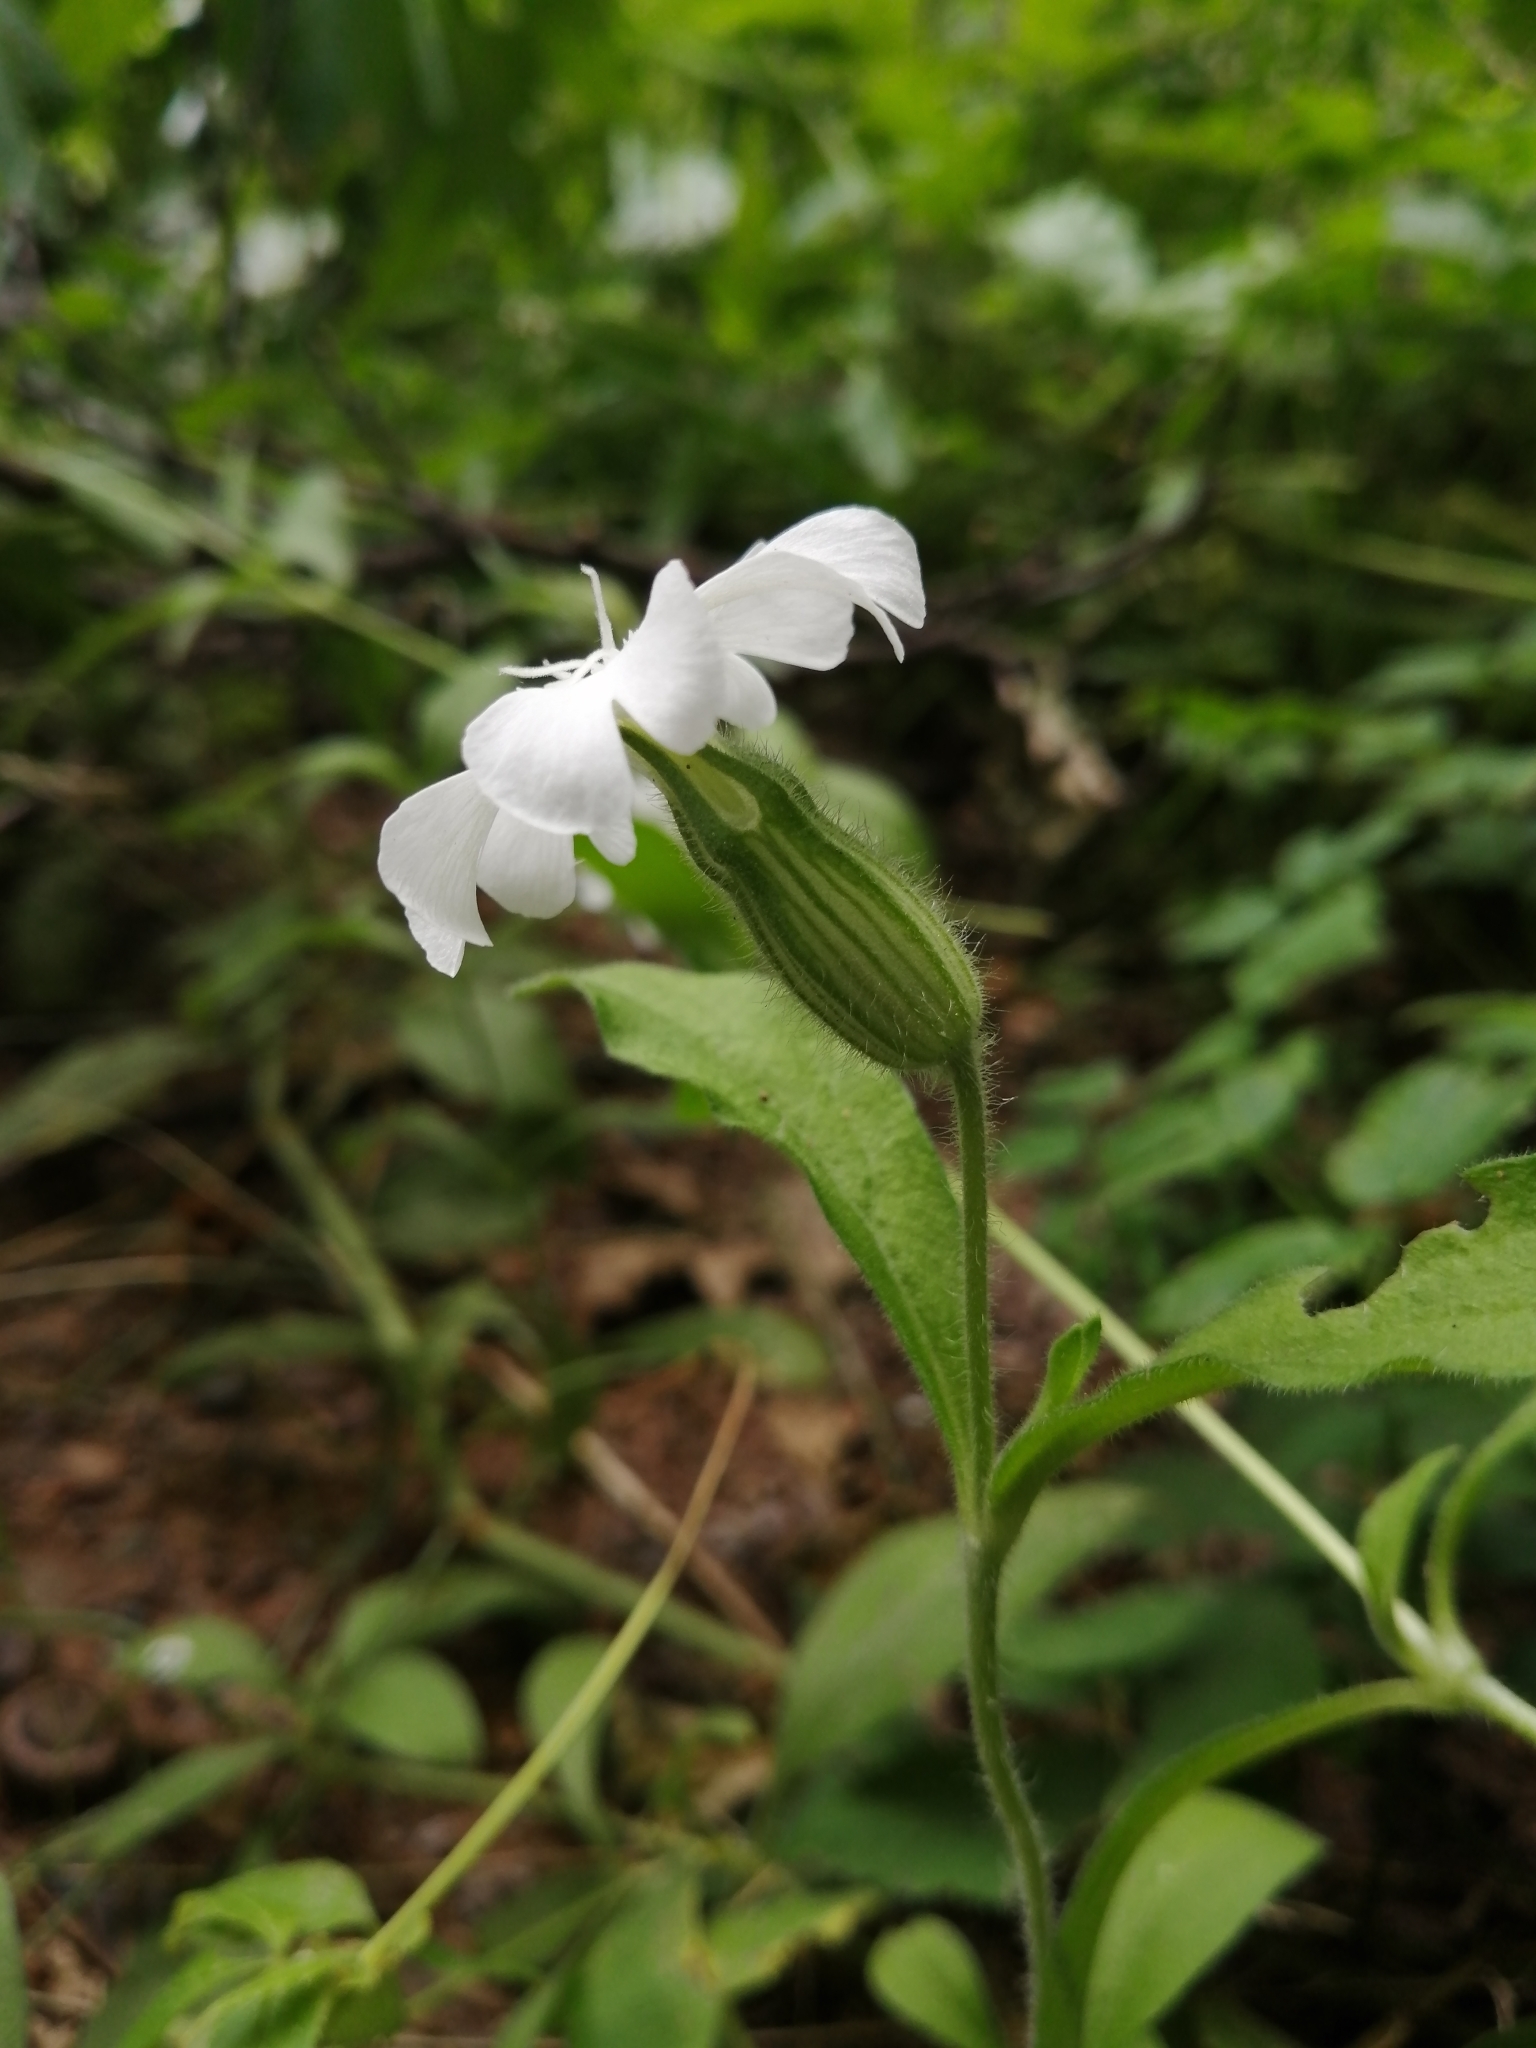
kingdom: Plantae
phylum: Tracheophyta
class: Magnoliopsida
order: Caryophyllales
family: Caryophyllaceae
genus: Silene
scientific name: Silene latifolia
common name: White campion
